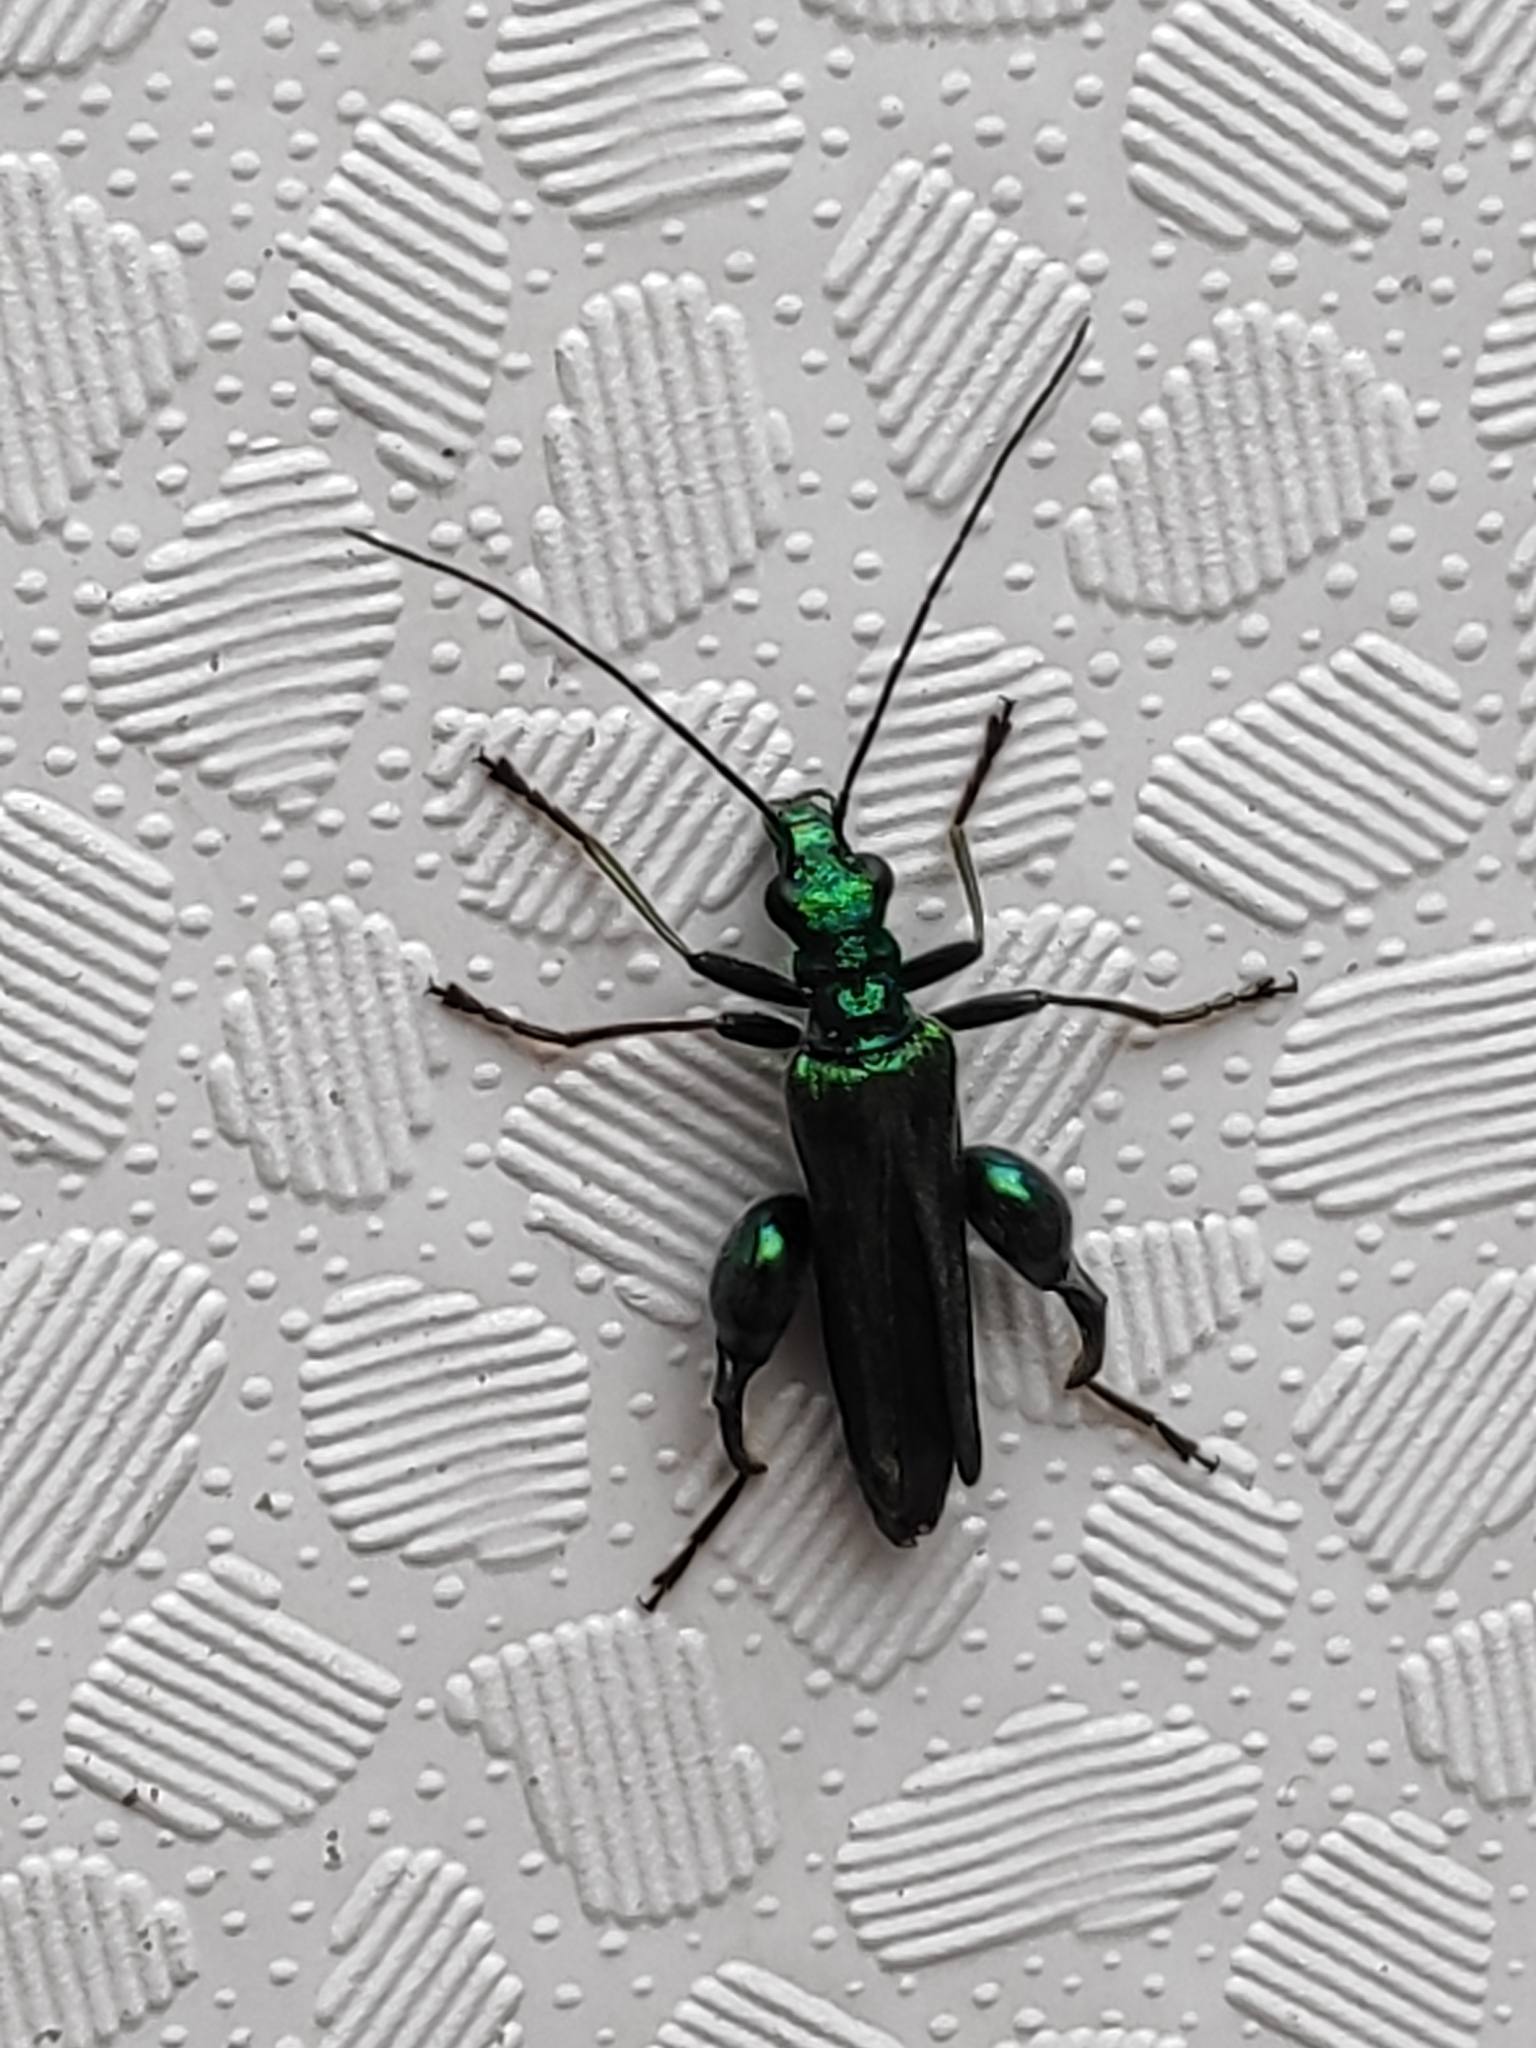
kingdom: Animalia
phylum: Arthropoda
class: Insecta
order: Coleoptera
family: Oedemeridae
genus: Oedemera
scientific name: Oedemera nobilis
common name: Swollen-thighed beetle
